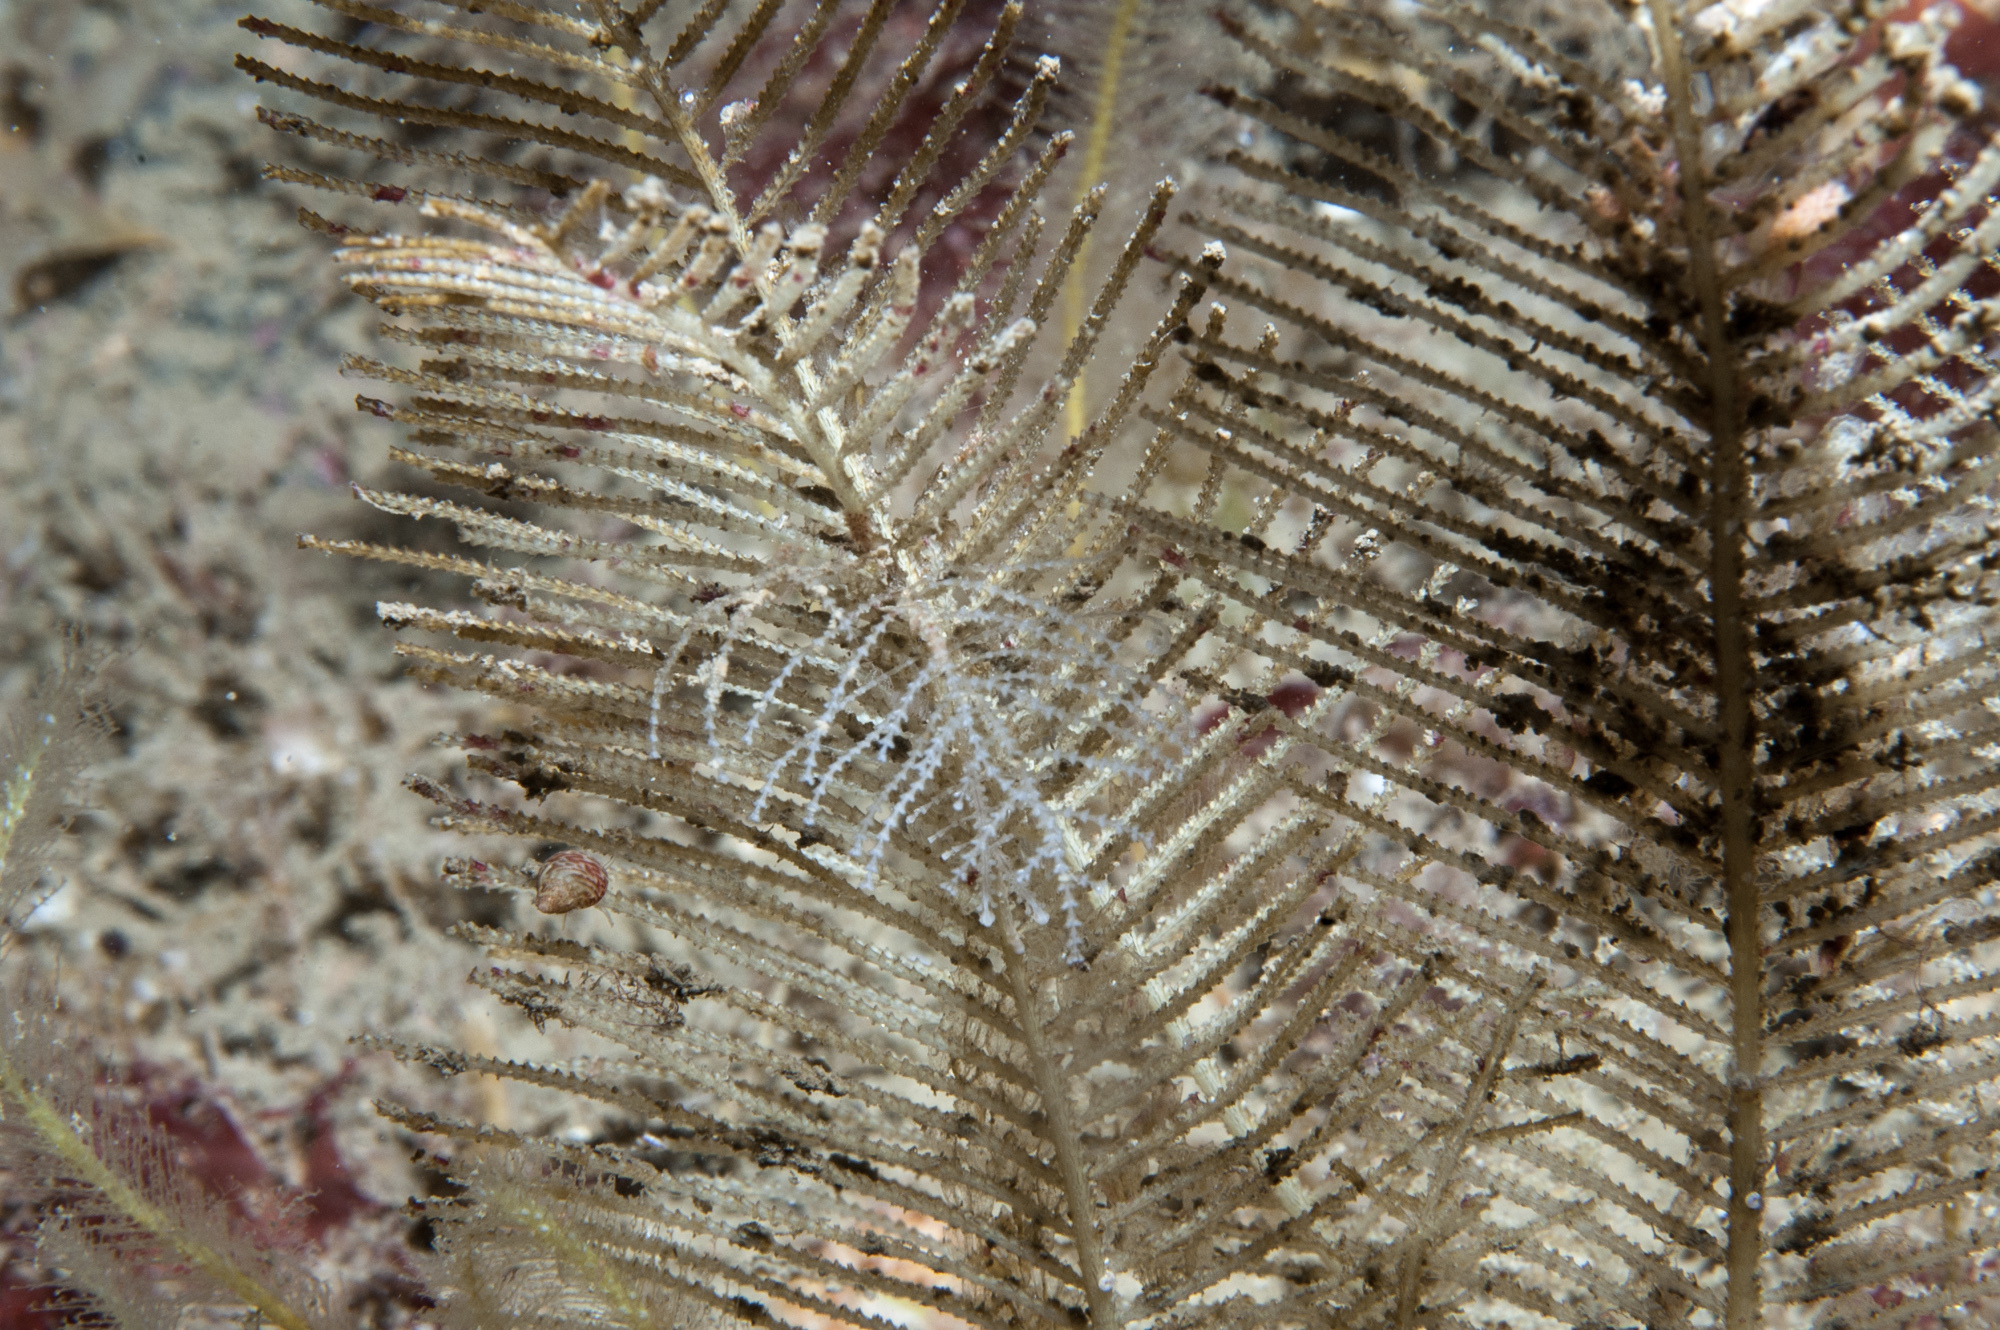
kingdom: Animalia
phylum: Cnidaria
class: Hydrozoa
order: Leptothecata
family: Sertulariidae
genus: Diphasia
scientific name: Diphasia nigra
